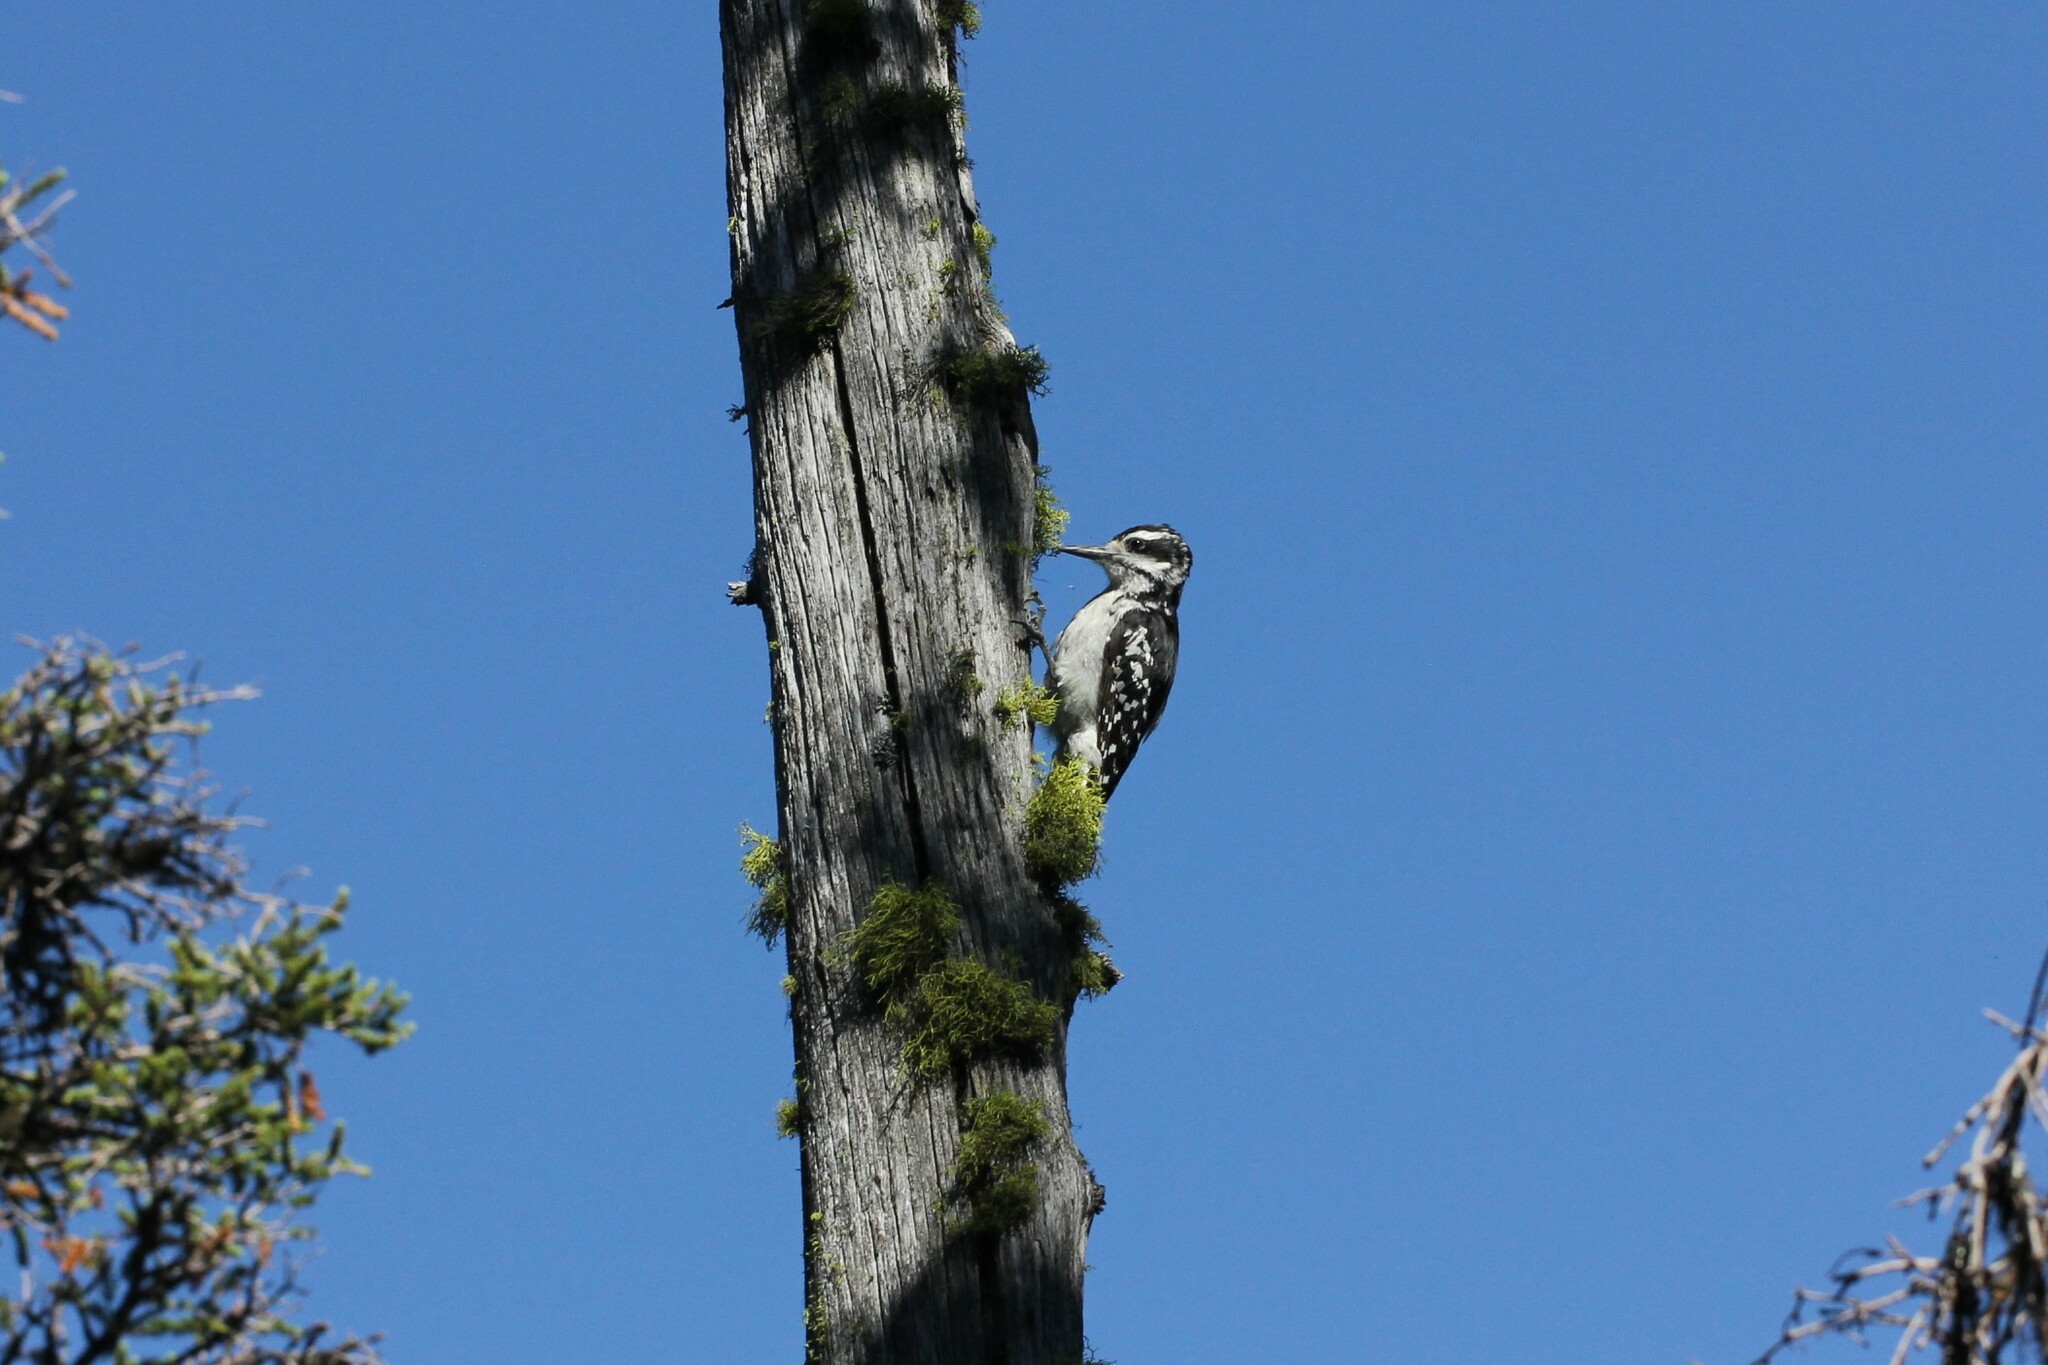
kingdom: Animalia
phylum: Chordata
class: Aves
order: Piciformes
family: Picidae
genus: Leuconotopicus
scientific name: Leuconotopicus villosus
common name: Hairy woodpecker
